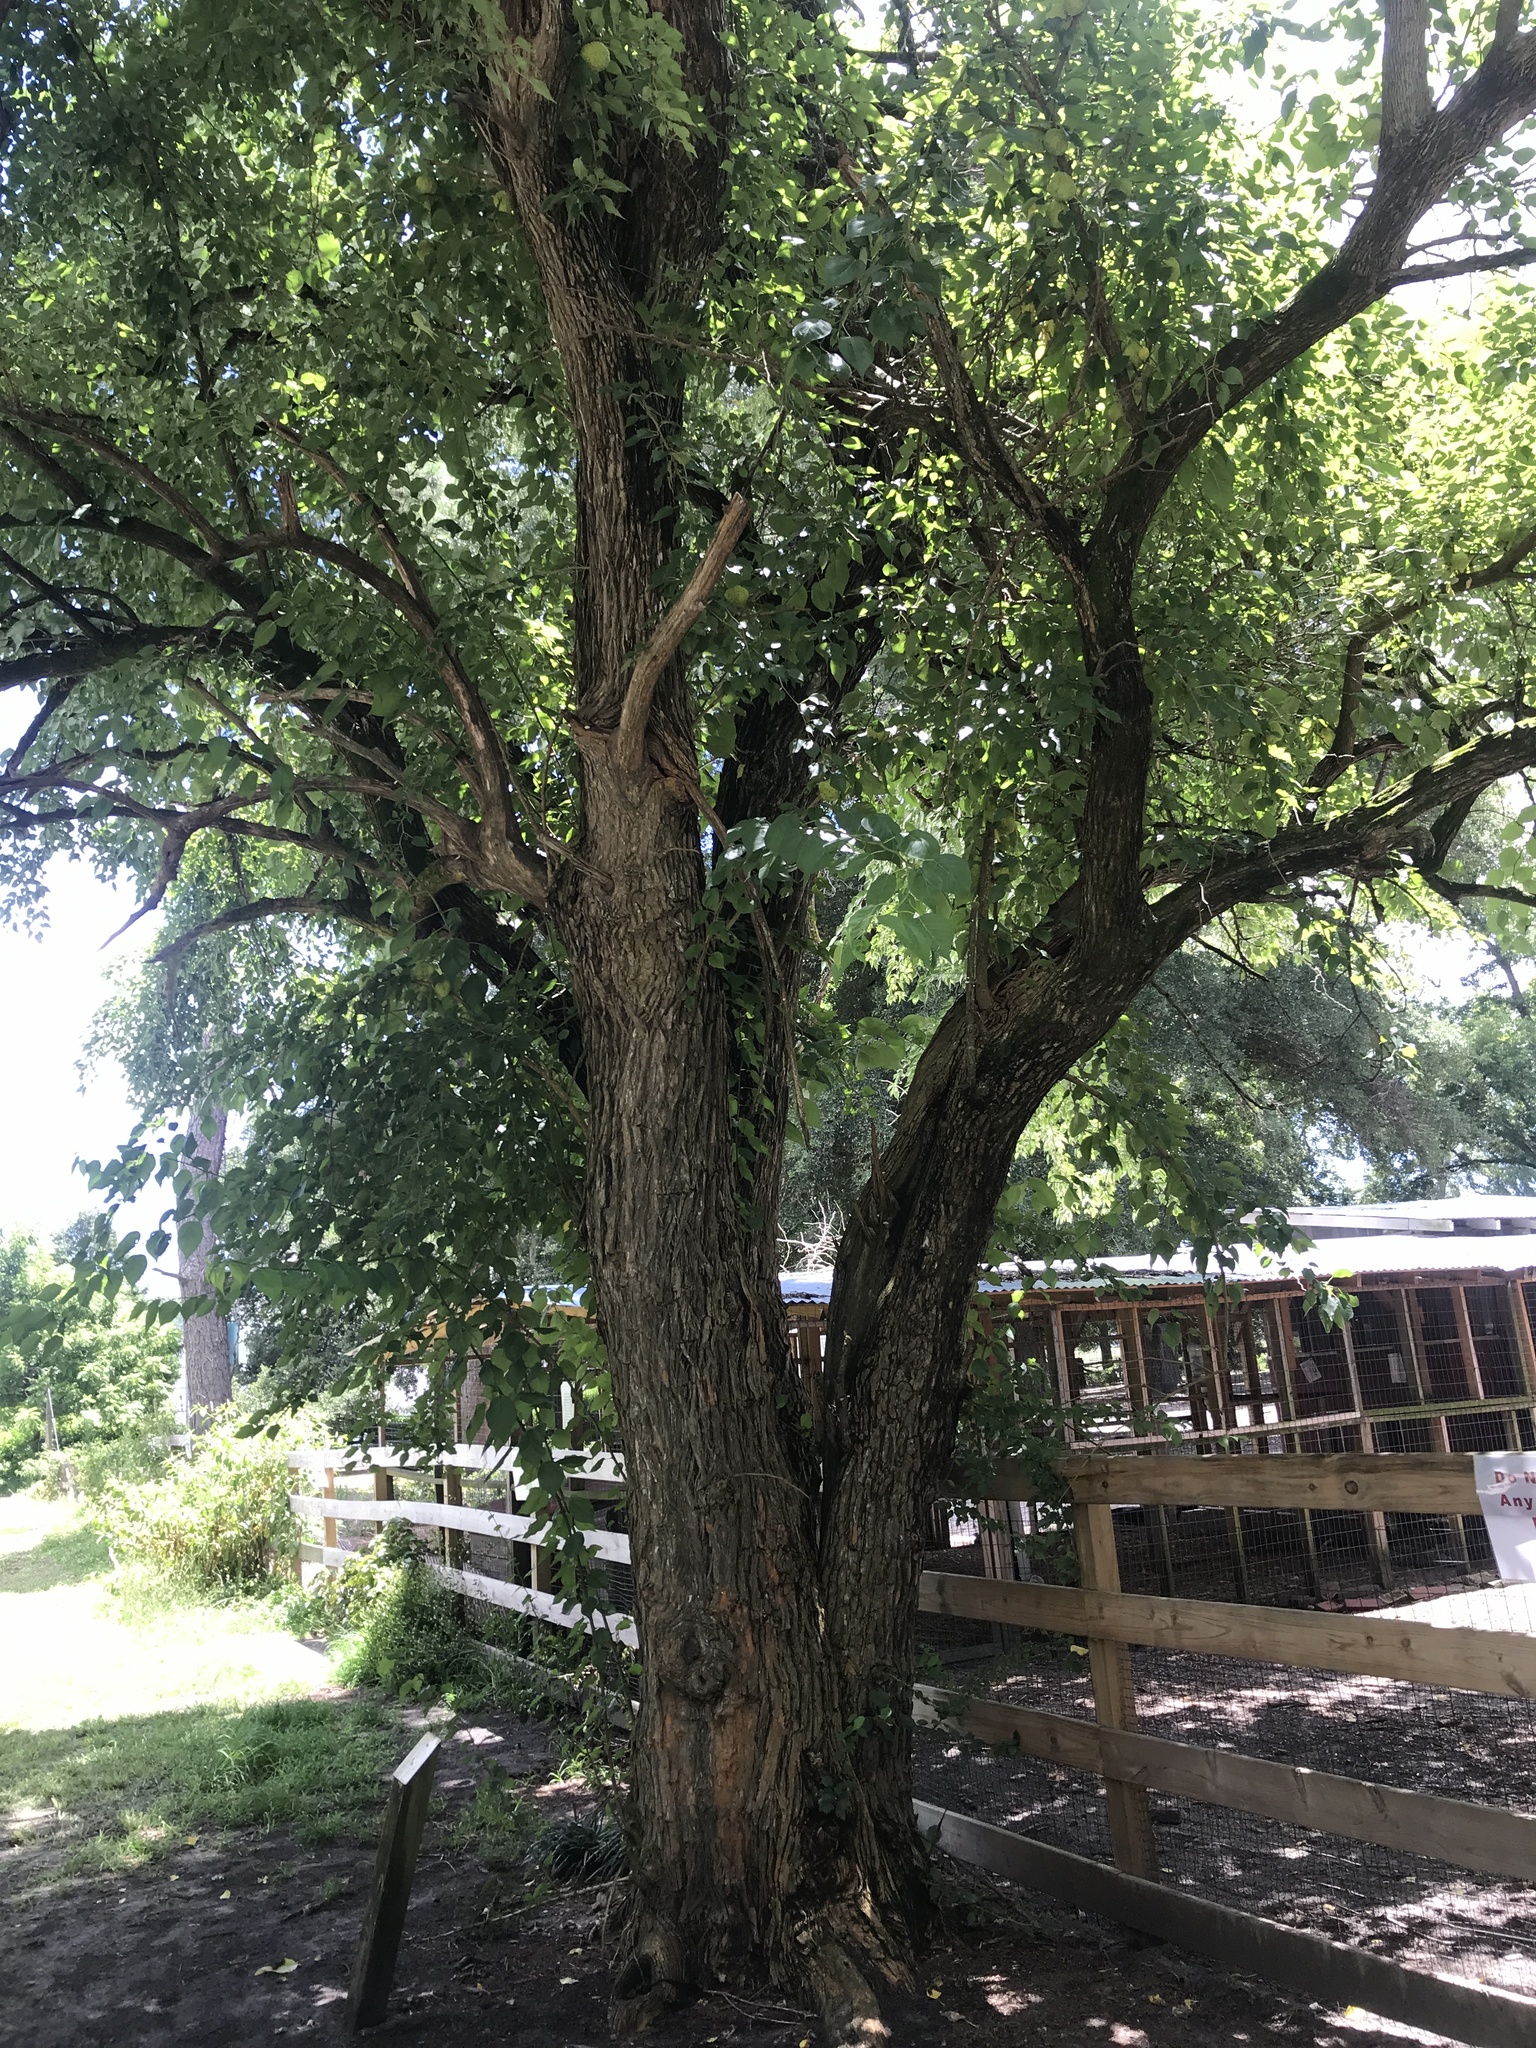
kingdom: Plantae
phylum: Tracheophyta
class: Magnoliopsida
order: Rosales
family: Moraceae
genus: Maclura
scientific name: Maclura pomifera
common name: Osage-orange
